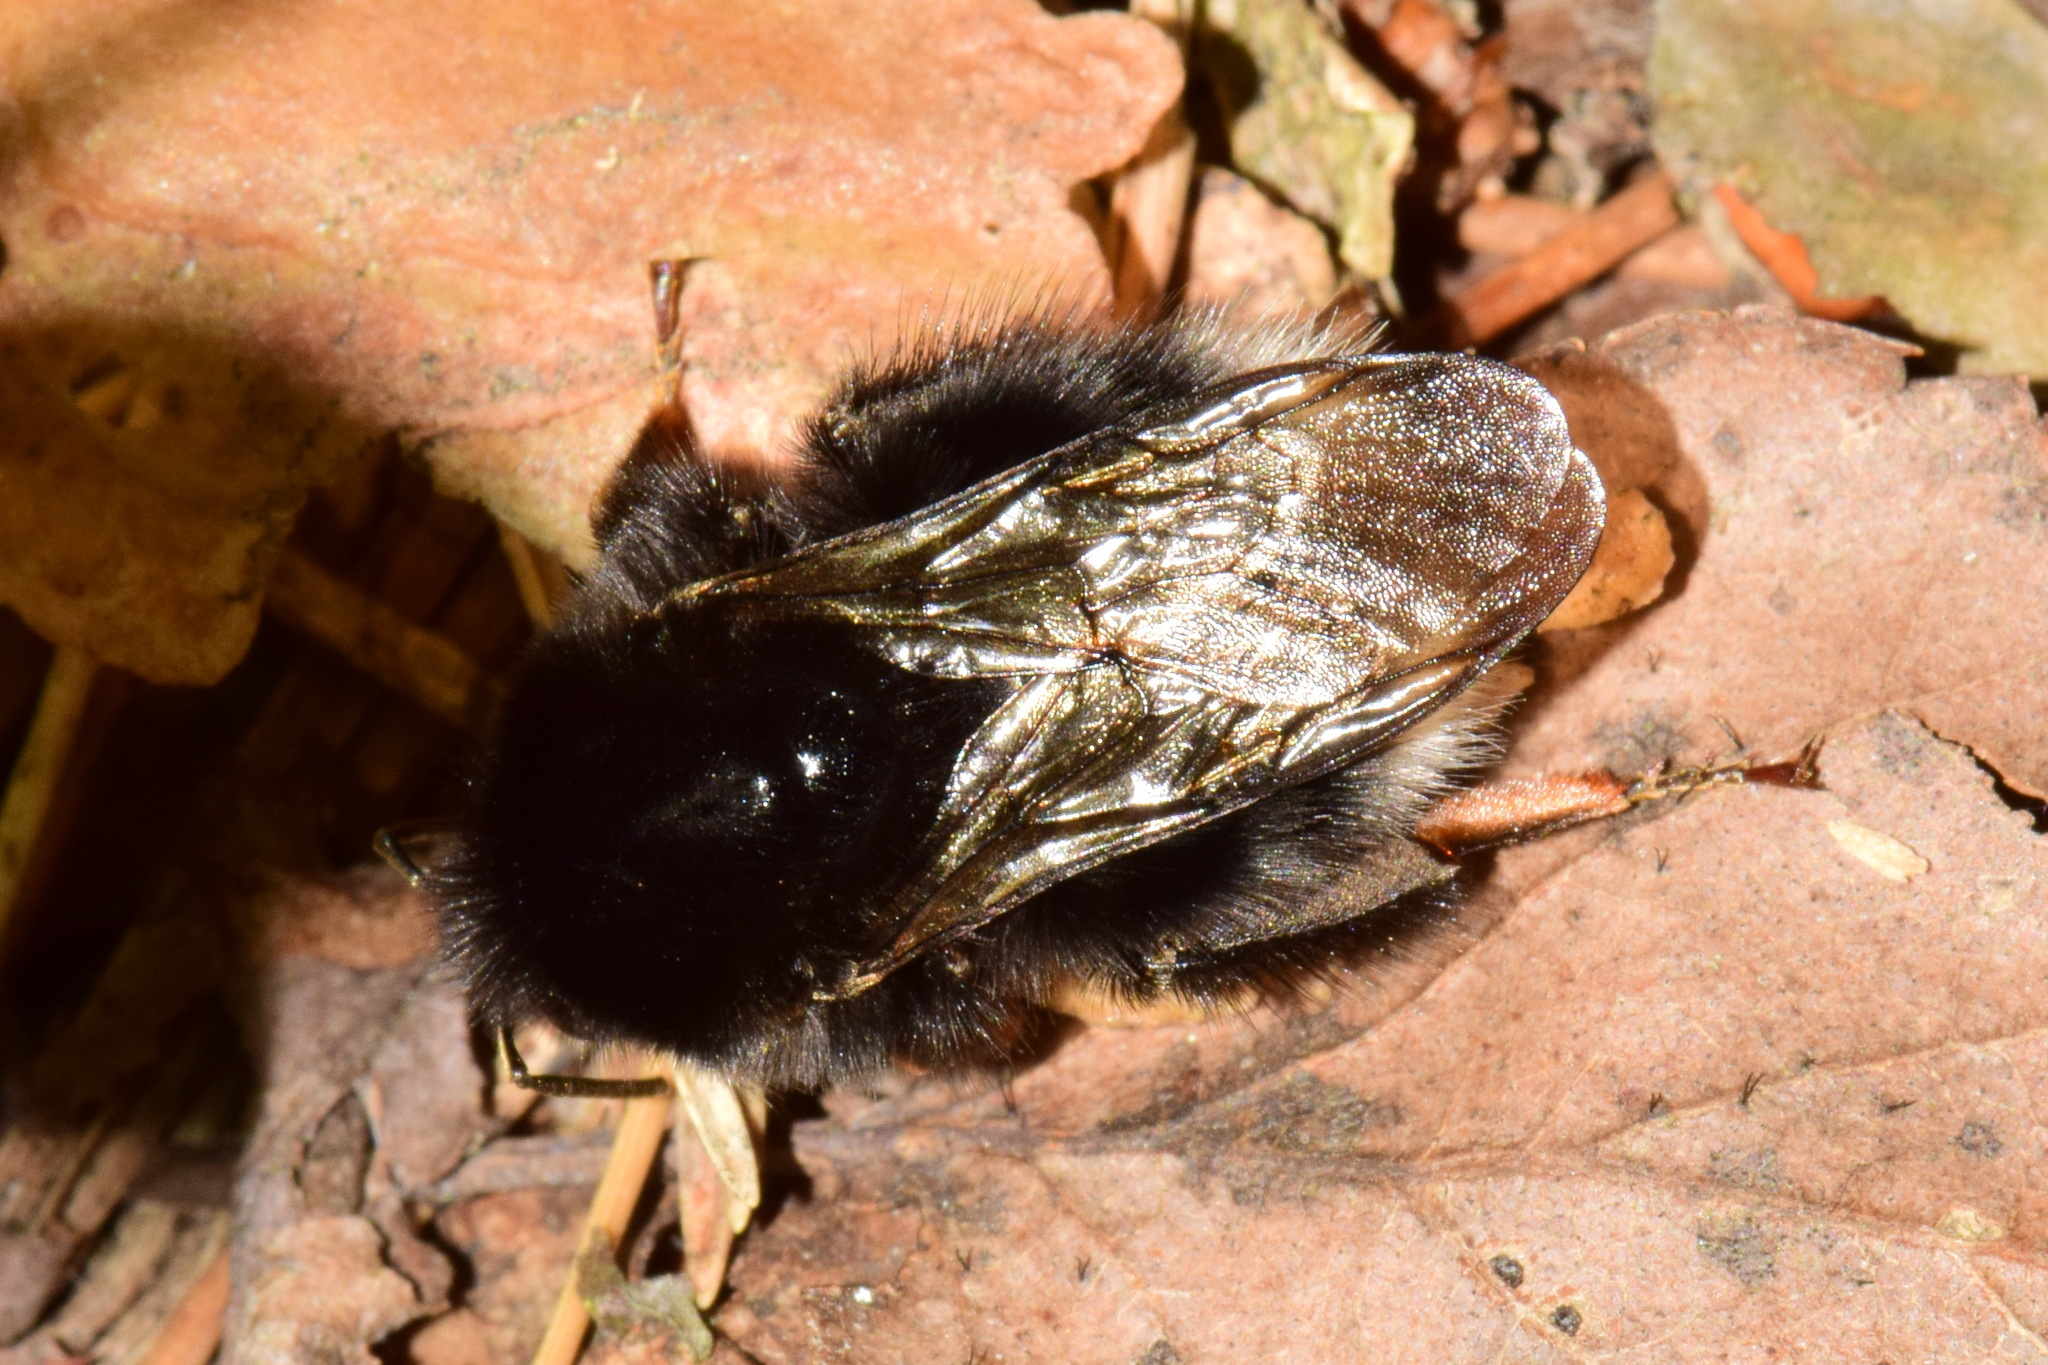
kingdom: Animalia
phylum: Arthropoda
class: Insecta
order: Hymenoptera
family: Apidae
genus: Bombus
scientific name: Bombus hypnorum
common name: New garden bumblebee
